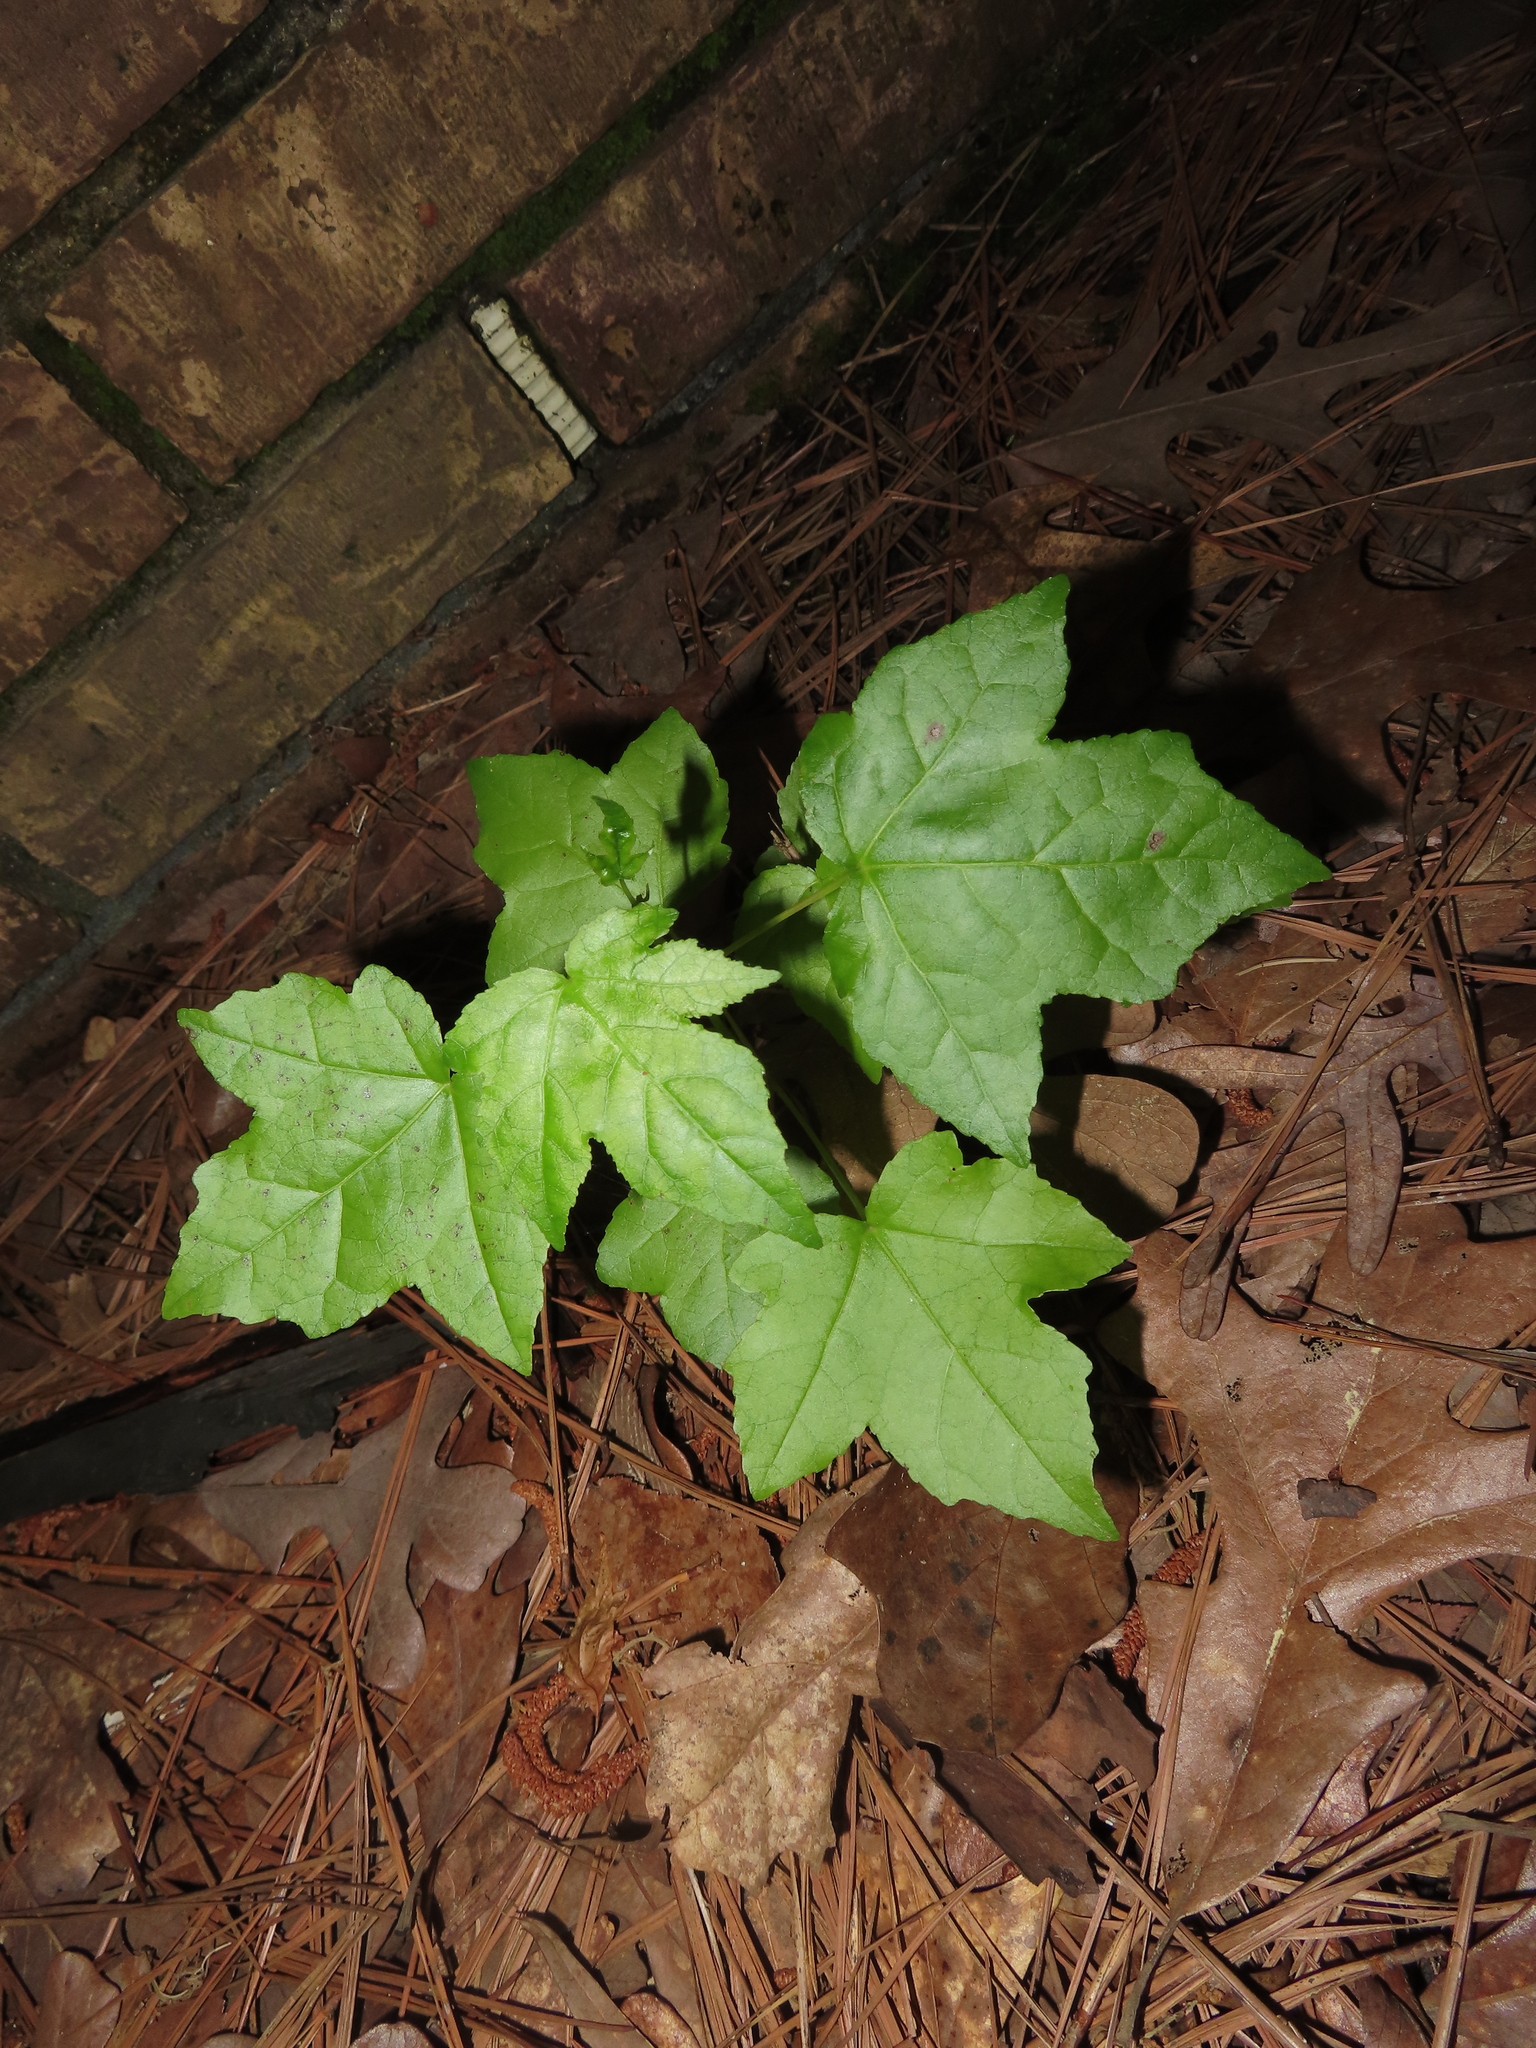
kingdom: Plantae
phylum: Tracheophyta
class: Magnoliopsida
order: Saxifragales
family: Altingiaceae
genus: Liquidambar
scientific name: Liquidambar styraciflua
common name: Sweet gum
